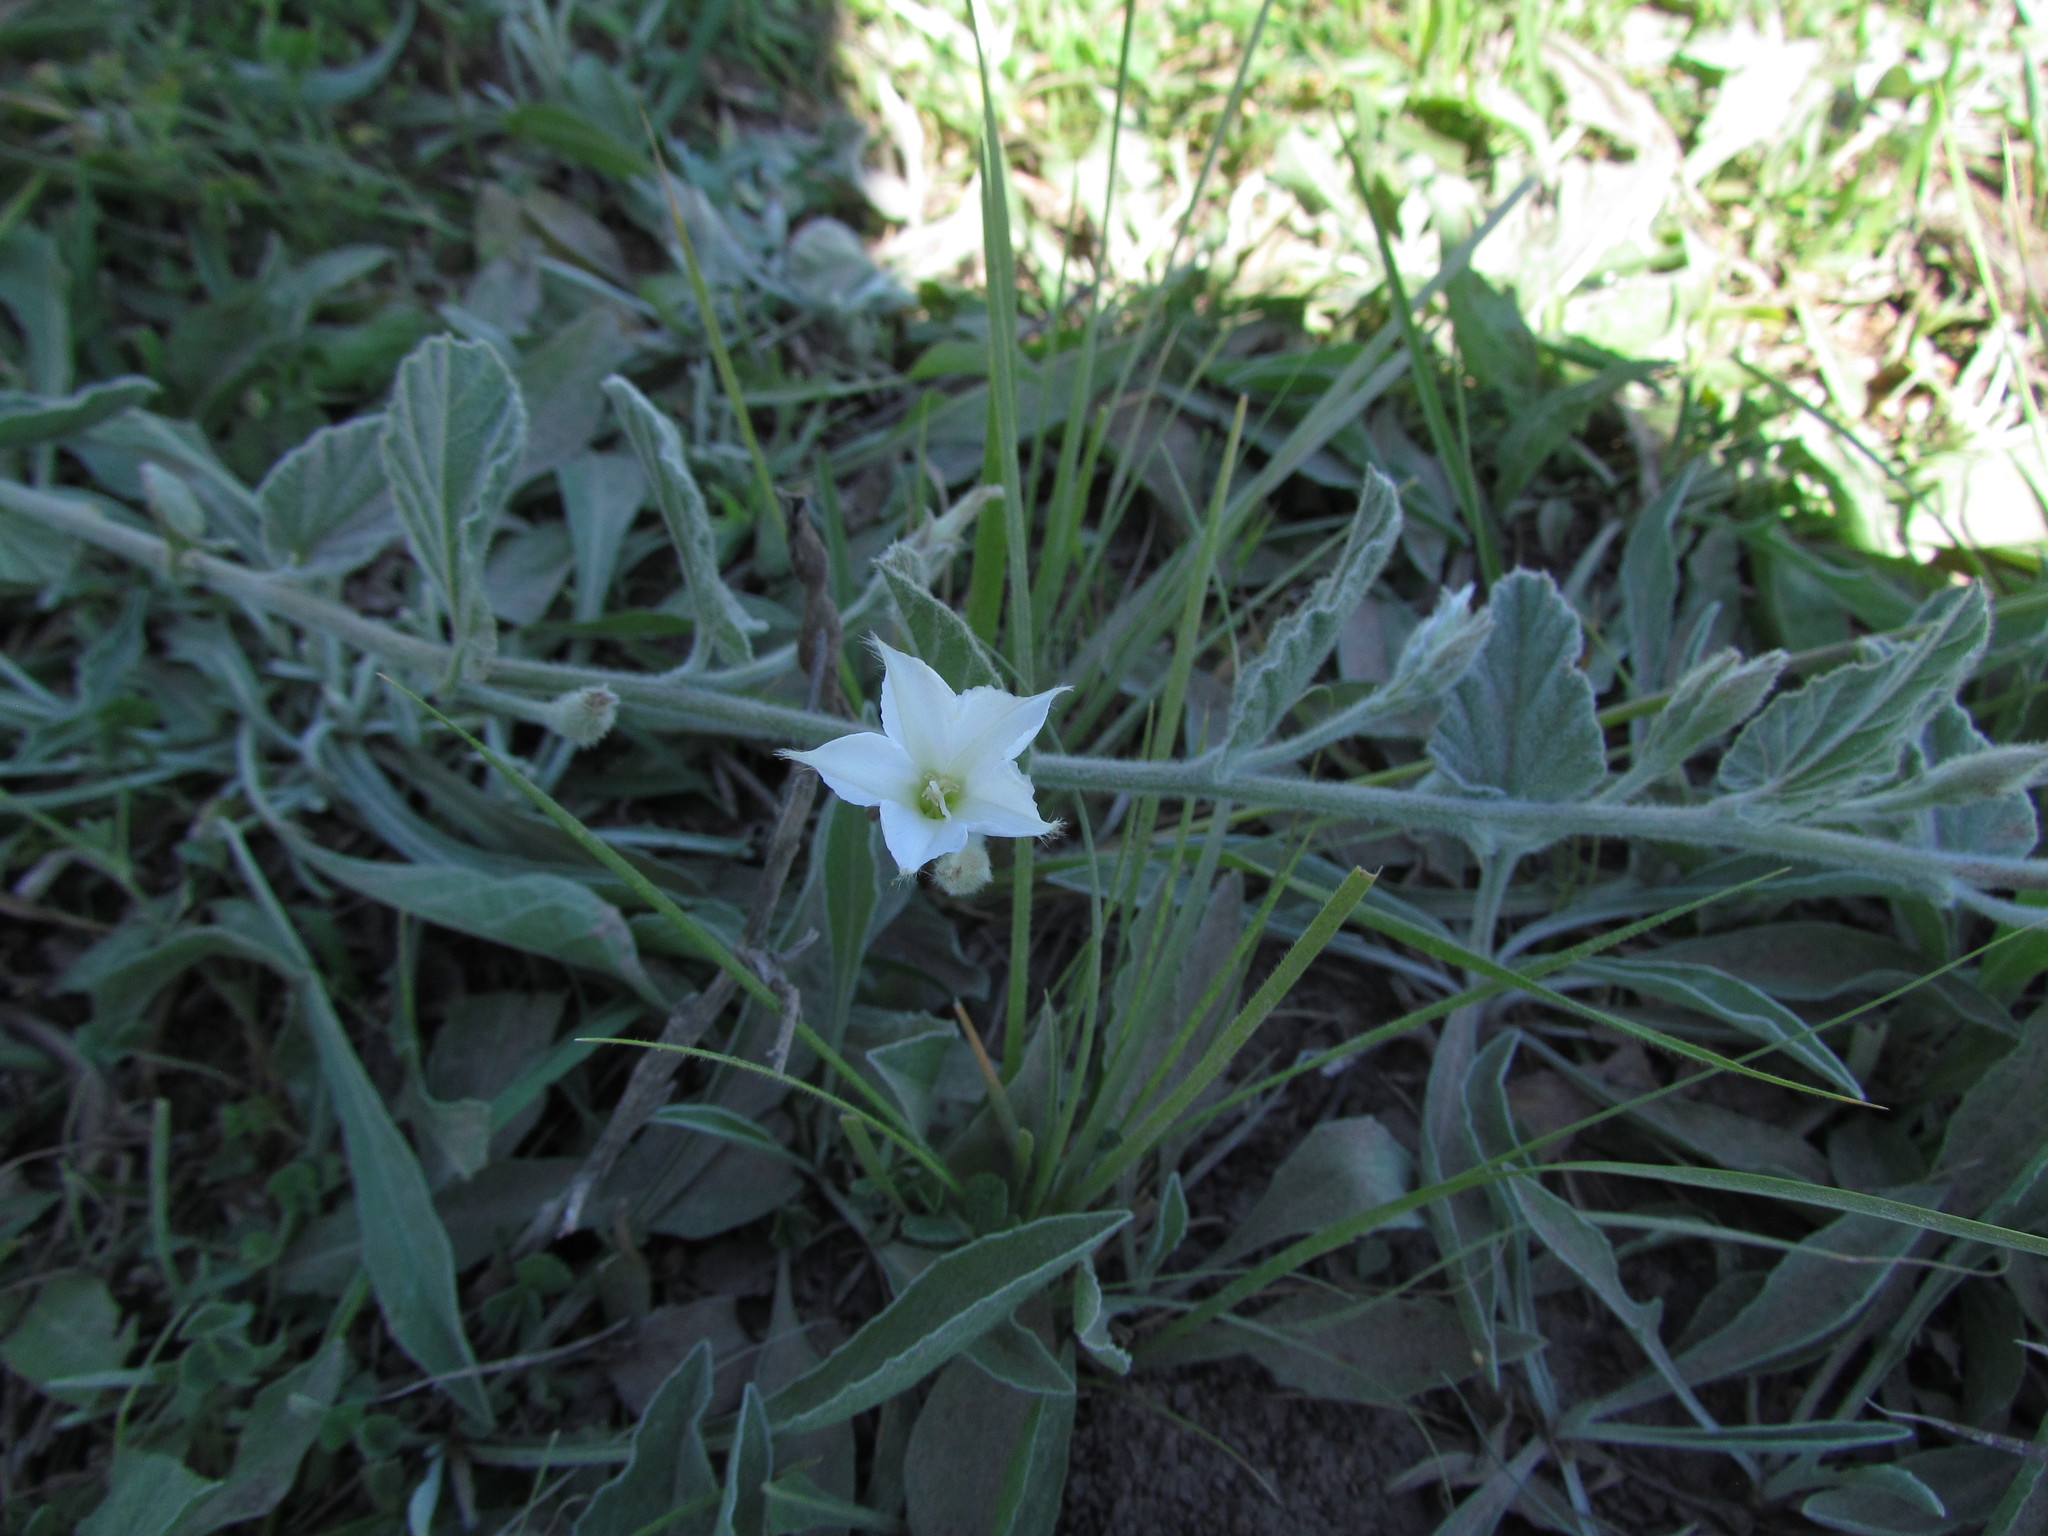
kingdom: Plantae
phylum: Tracheophyta
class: Magnoliopsida
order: Solanales
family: Convolvulaceae
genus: Convolvulus
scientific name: Convolvulus hermanniae
